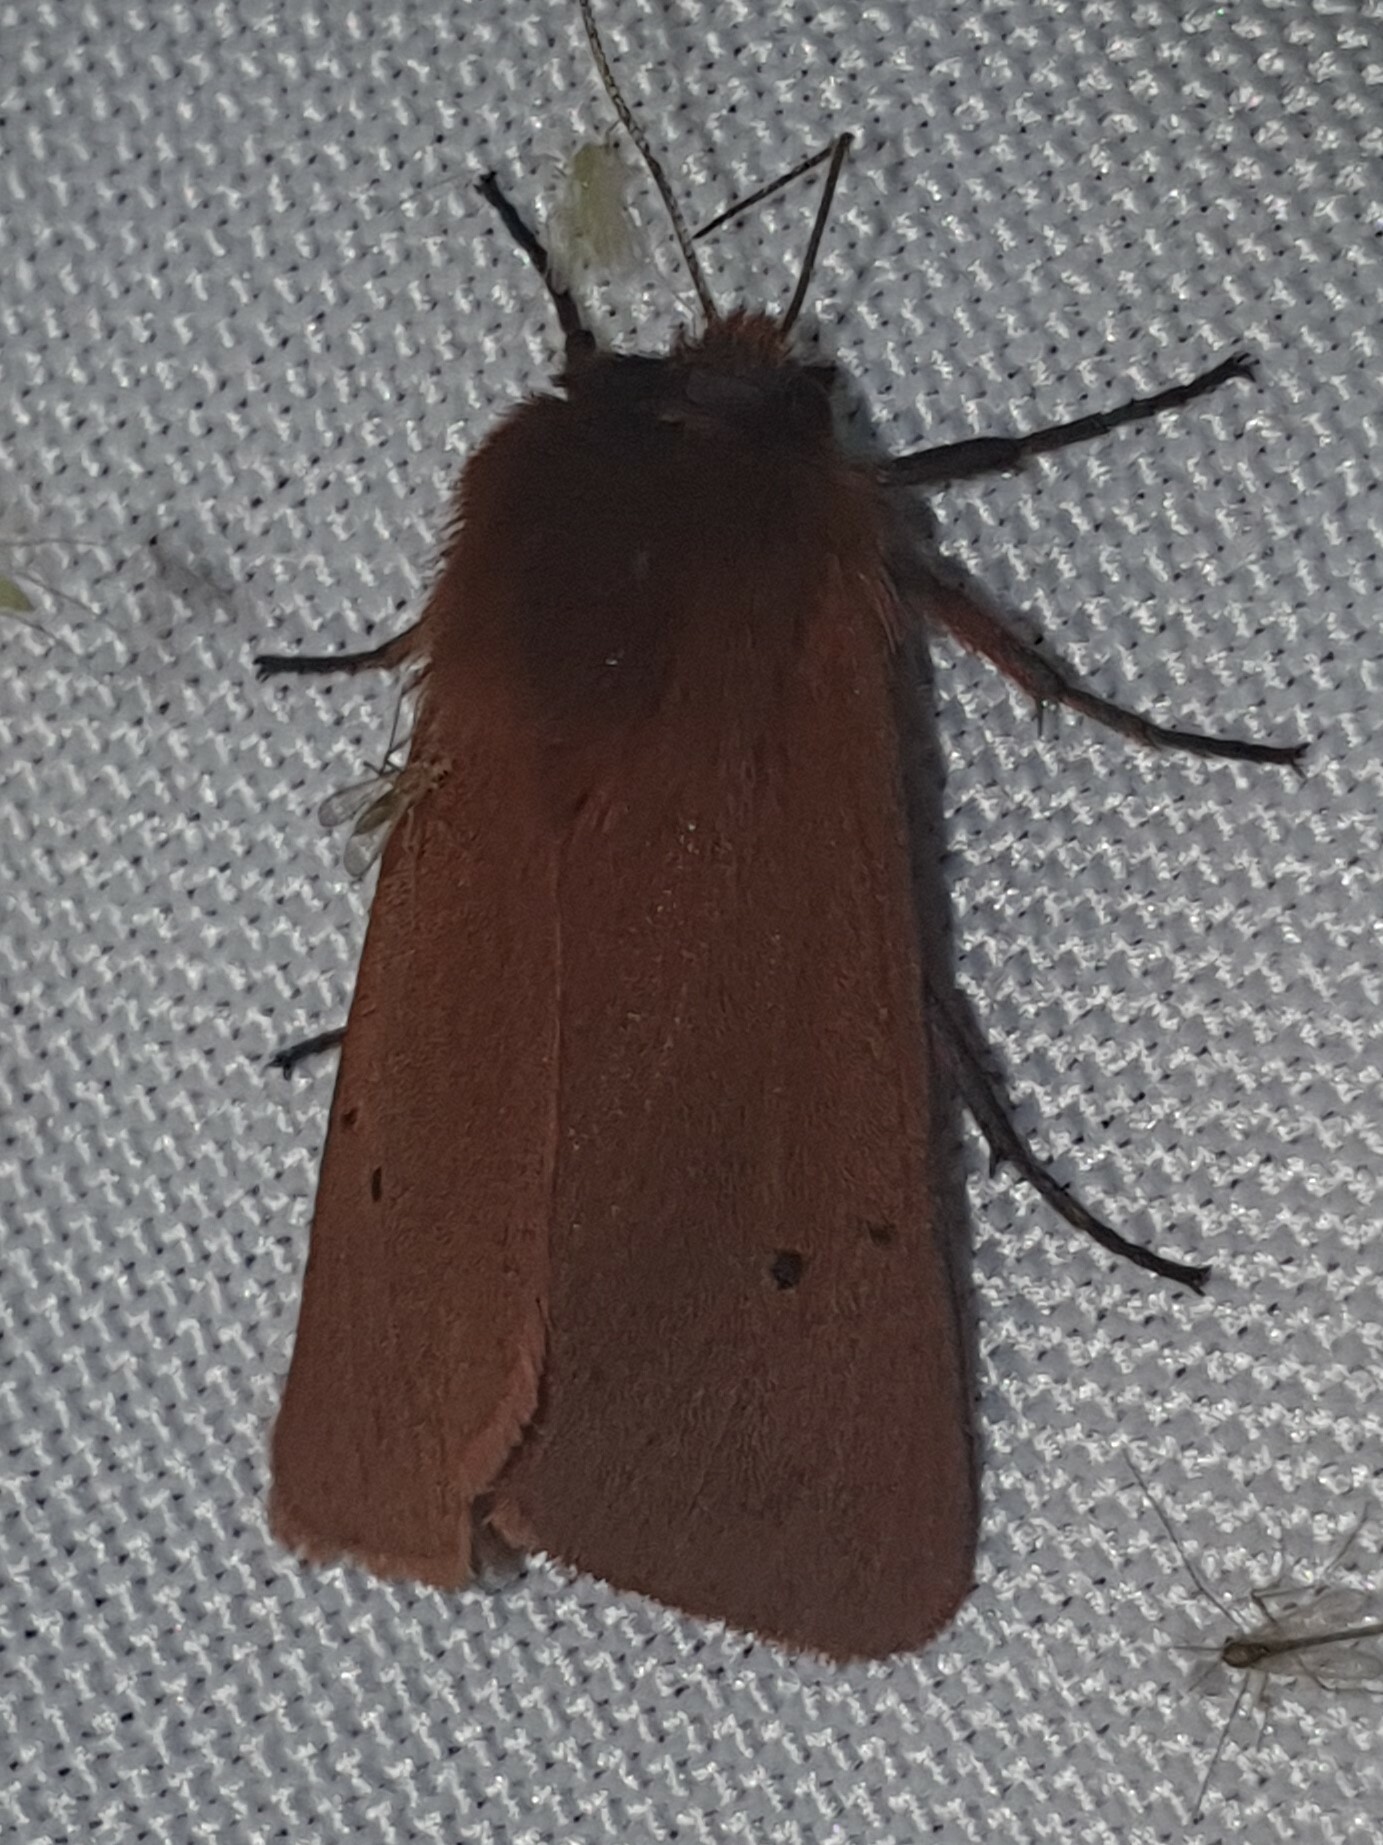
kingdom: Animalia
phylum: Arthropoda
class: Insecta
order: Lepidoptera
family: Erebidae
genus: Phragmatobia
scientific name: Phragmatobia fuliginosa
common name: Ruby tiger
